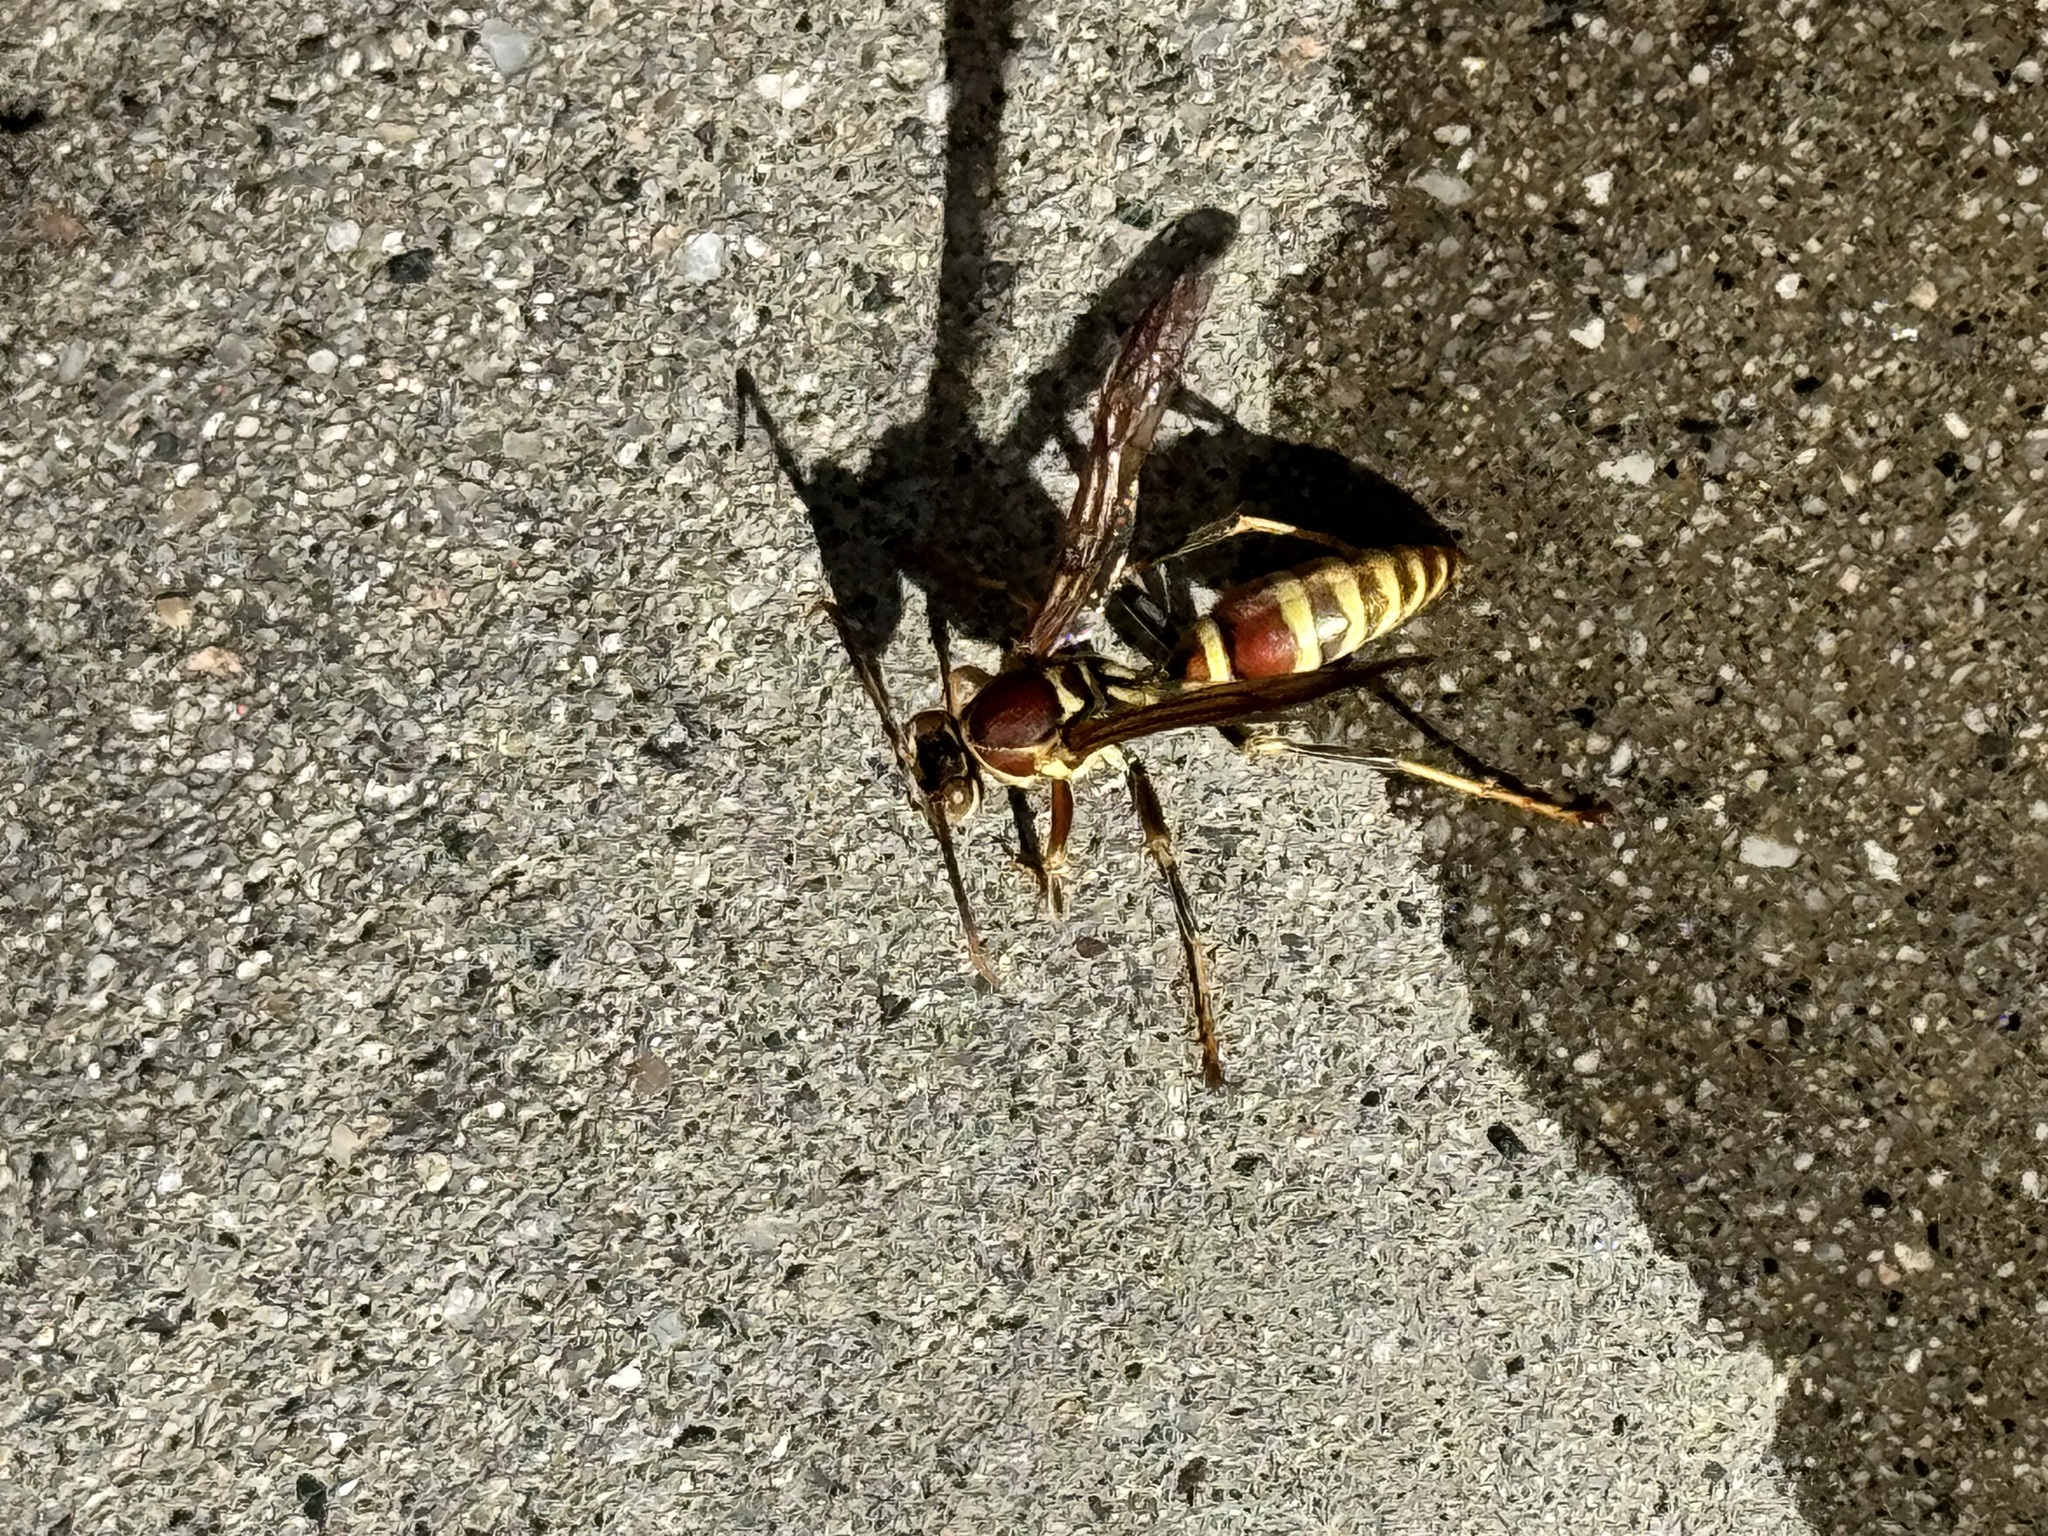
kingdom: Animalia
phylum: Arthropoda
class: Insecta
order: Hymenoptera
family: Eumenidae
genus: Polistes
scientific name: Polistes exclamans
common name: Paper wasp
